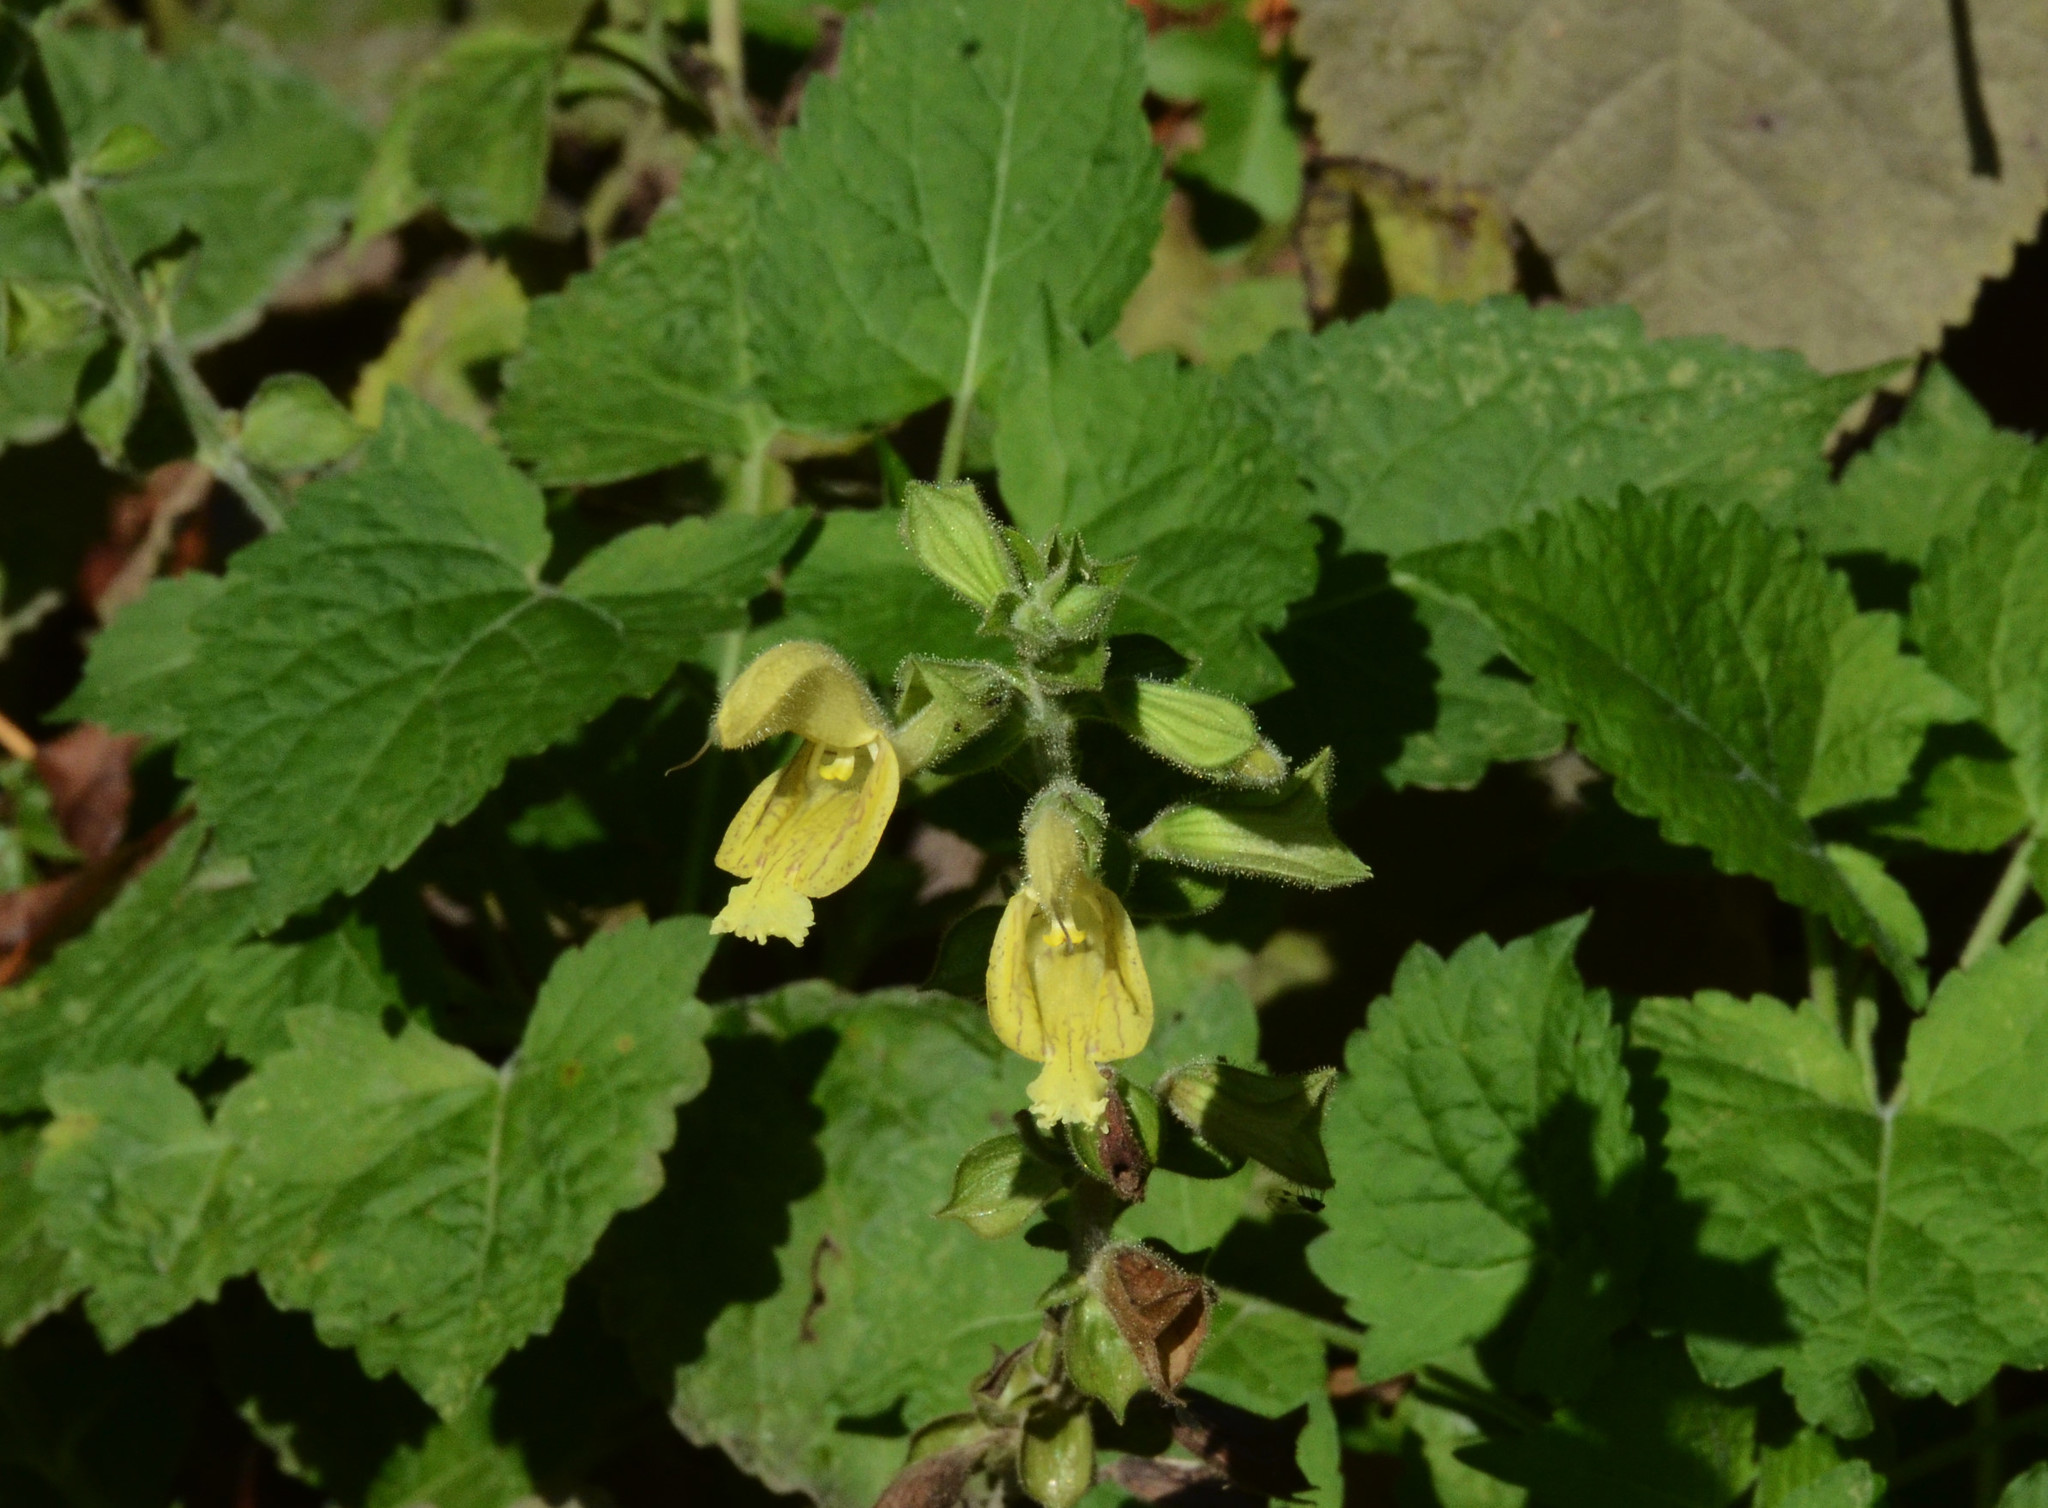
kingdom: Plantae
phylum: Tracheophyta
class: Magnoliopsida
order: Lamiales
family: Lamiaceae
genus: Salvia
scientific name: Salvia glutinosa
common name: Sticky clary
